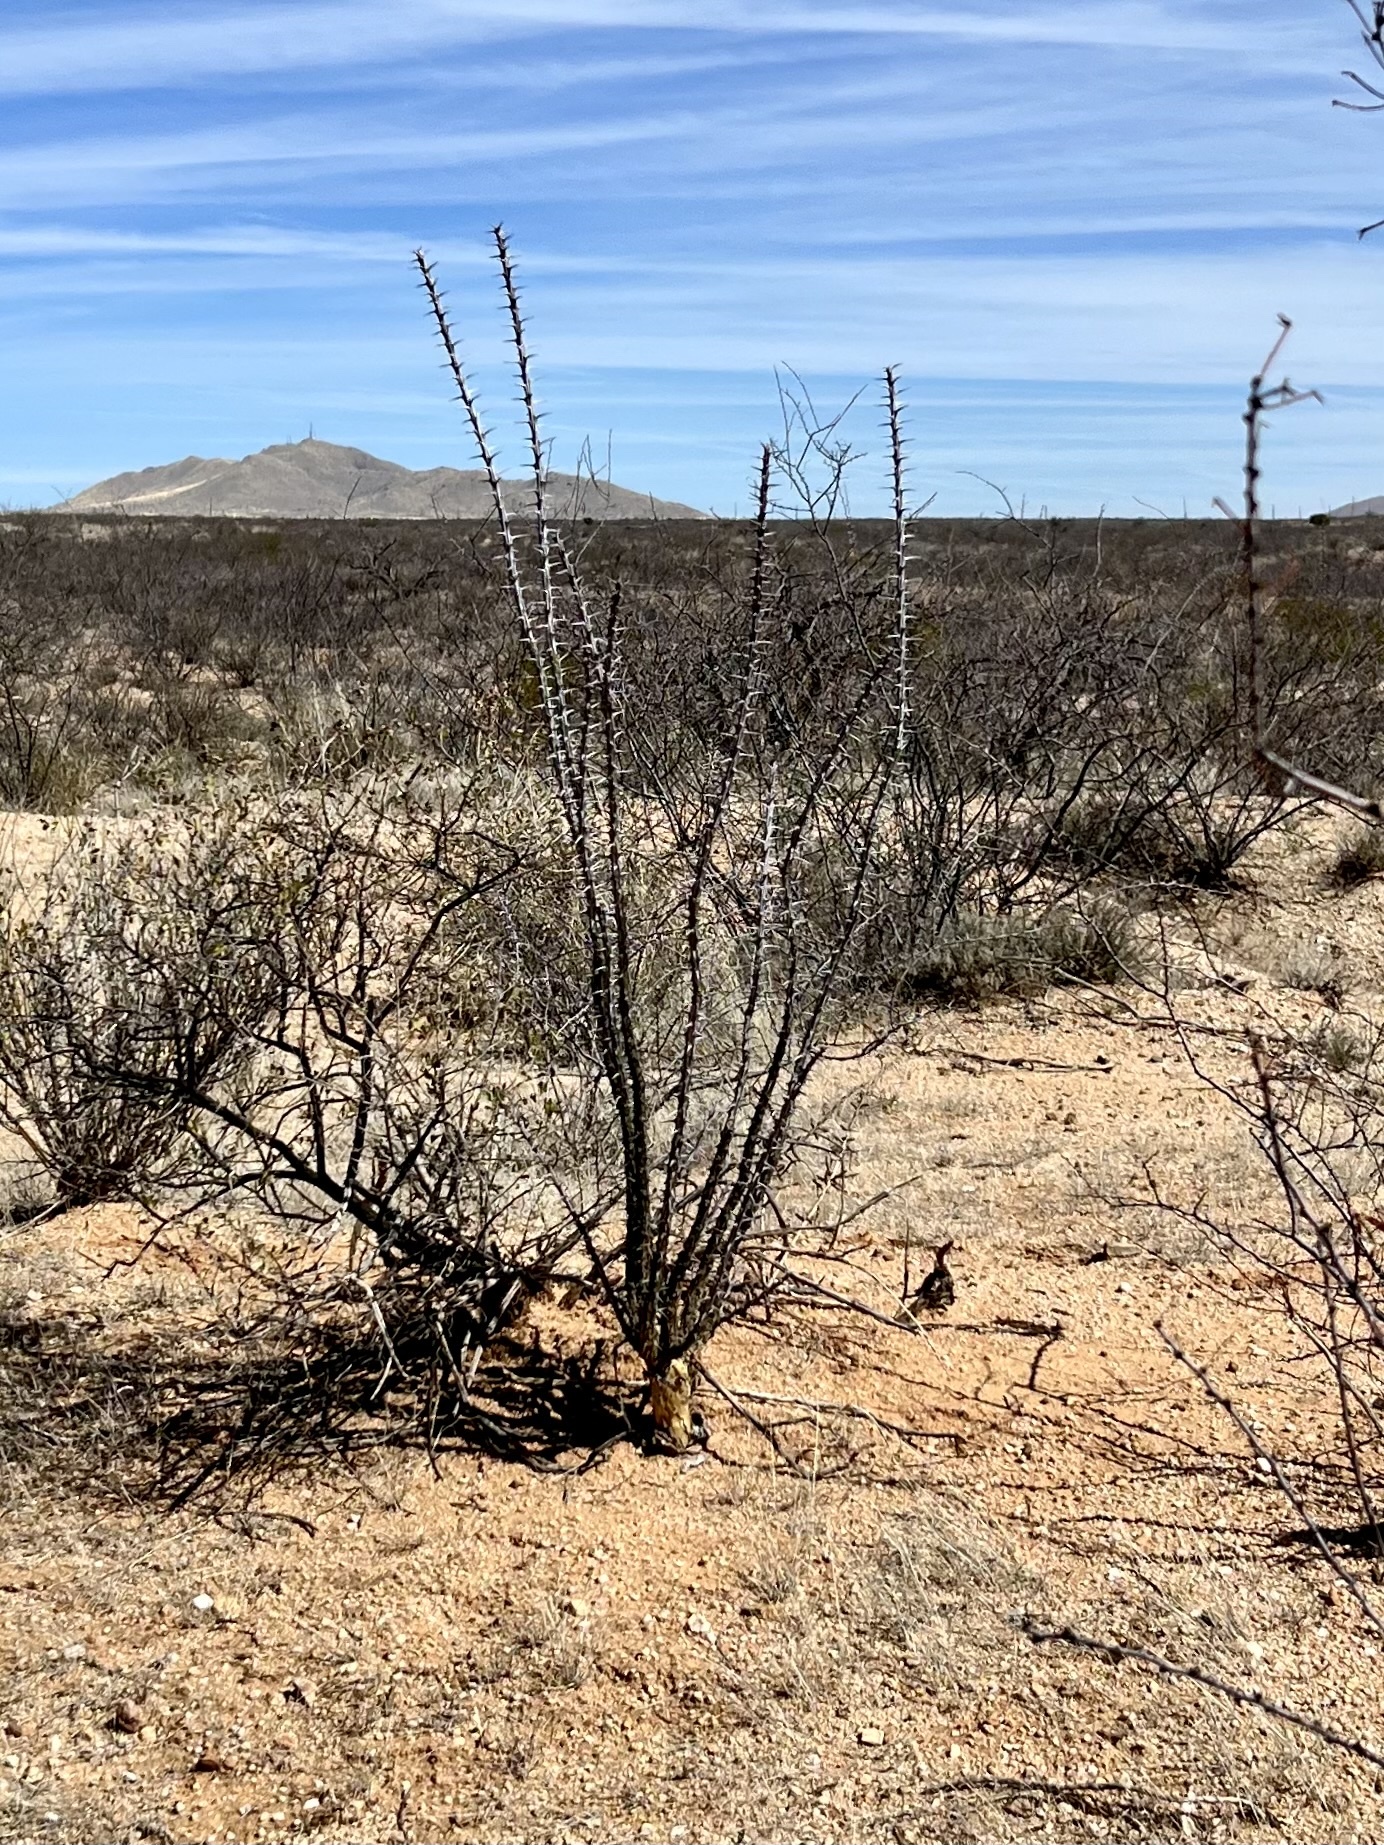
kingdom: Plantae
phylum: Tracheophyta
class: Magnoliopsida
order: Ericales
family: Fouquieriaceae
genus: Fouquieria
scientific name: Fouquieria splendens
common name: Vine-cactus
